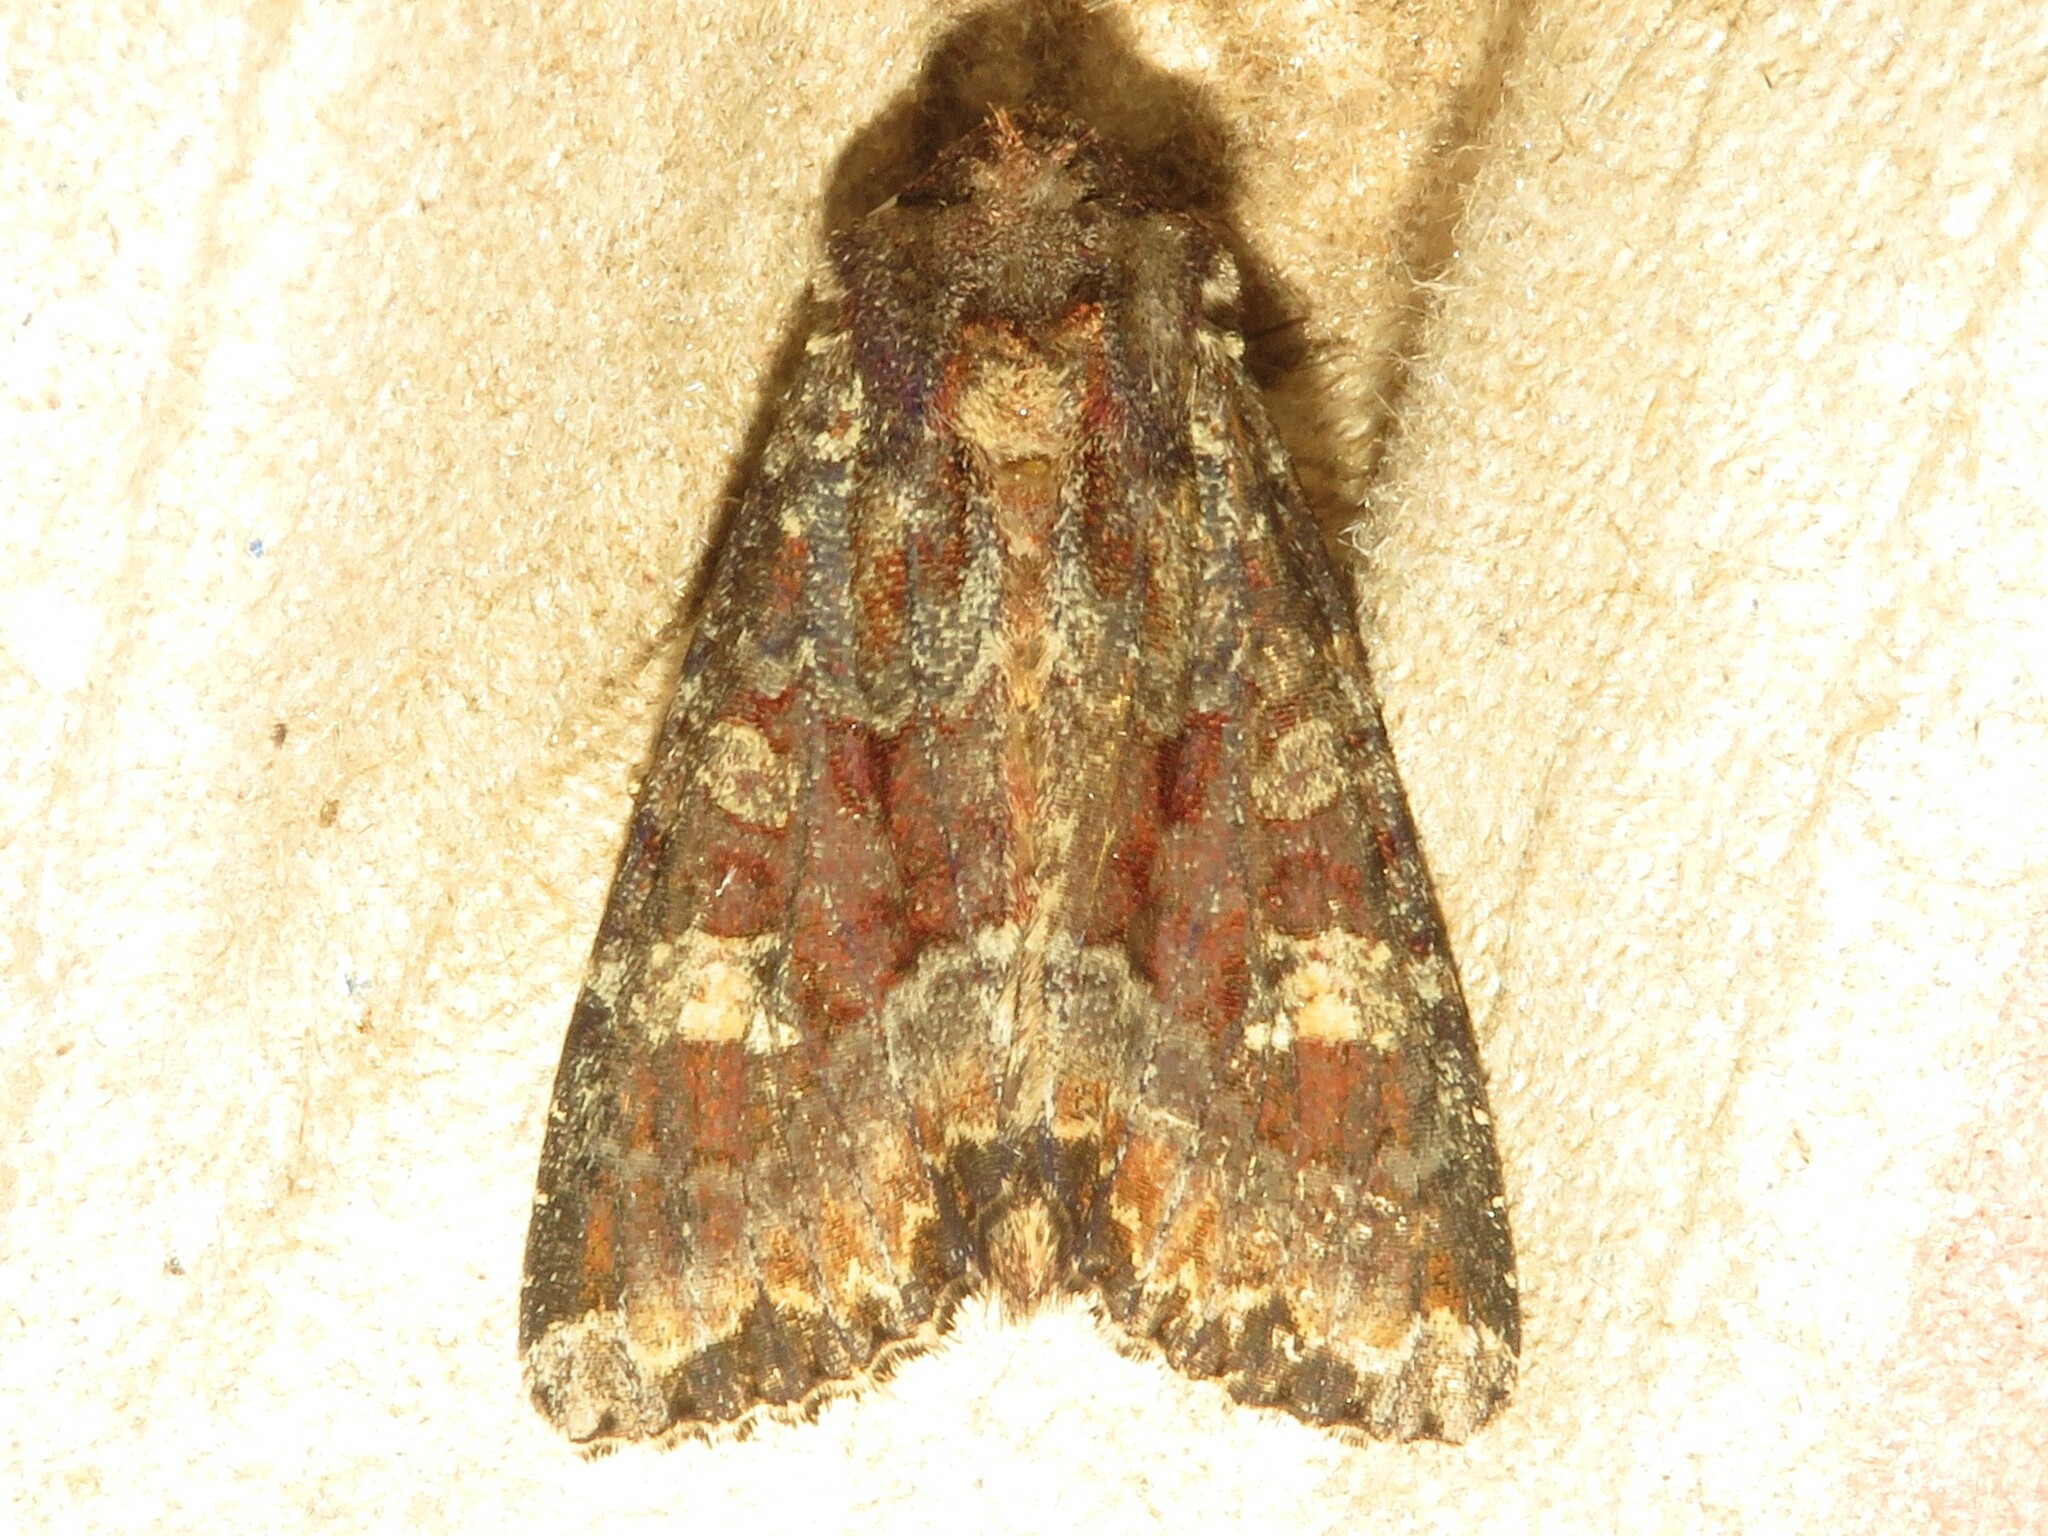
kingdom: Animalia
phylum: Arthropoda
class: Insecta
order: Lepidoptera
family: Noctuidae
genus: Apamea
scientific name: Apamea amputatrix
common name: Yellow-headed cutworm moth
